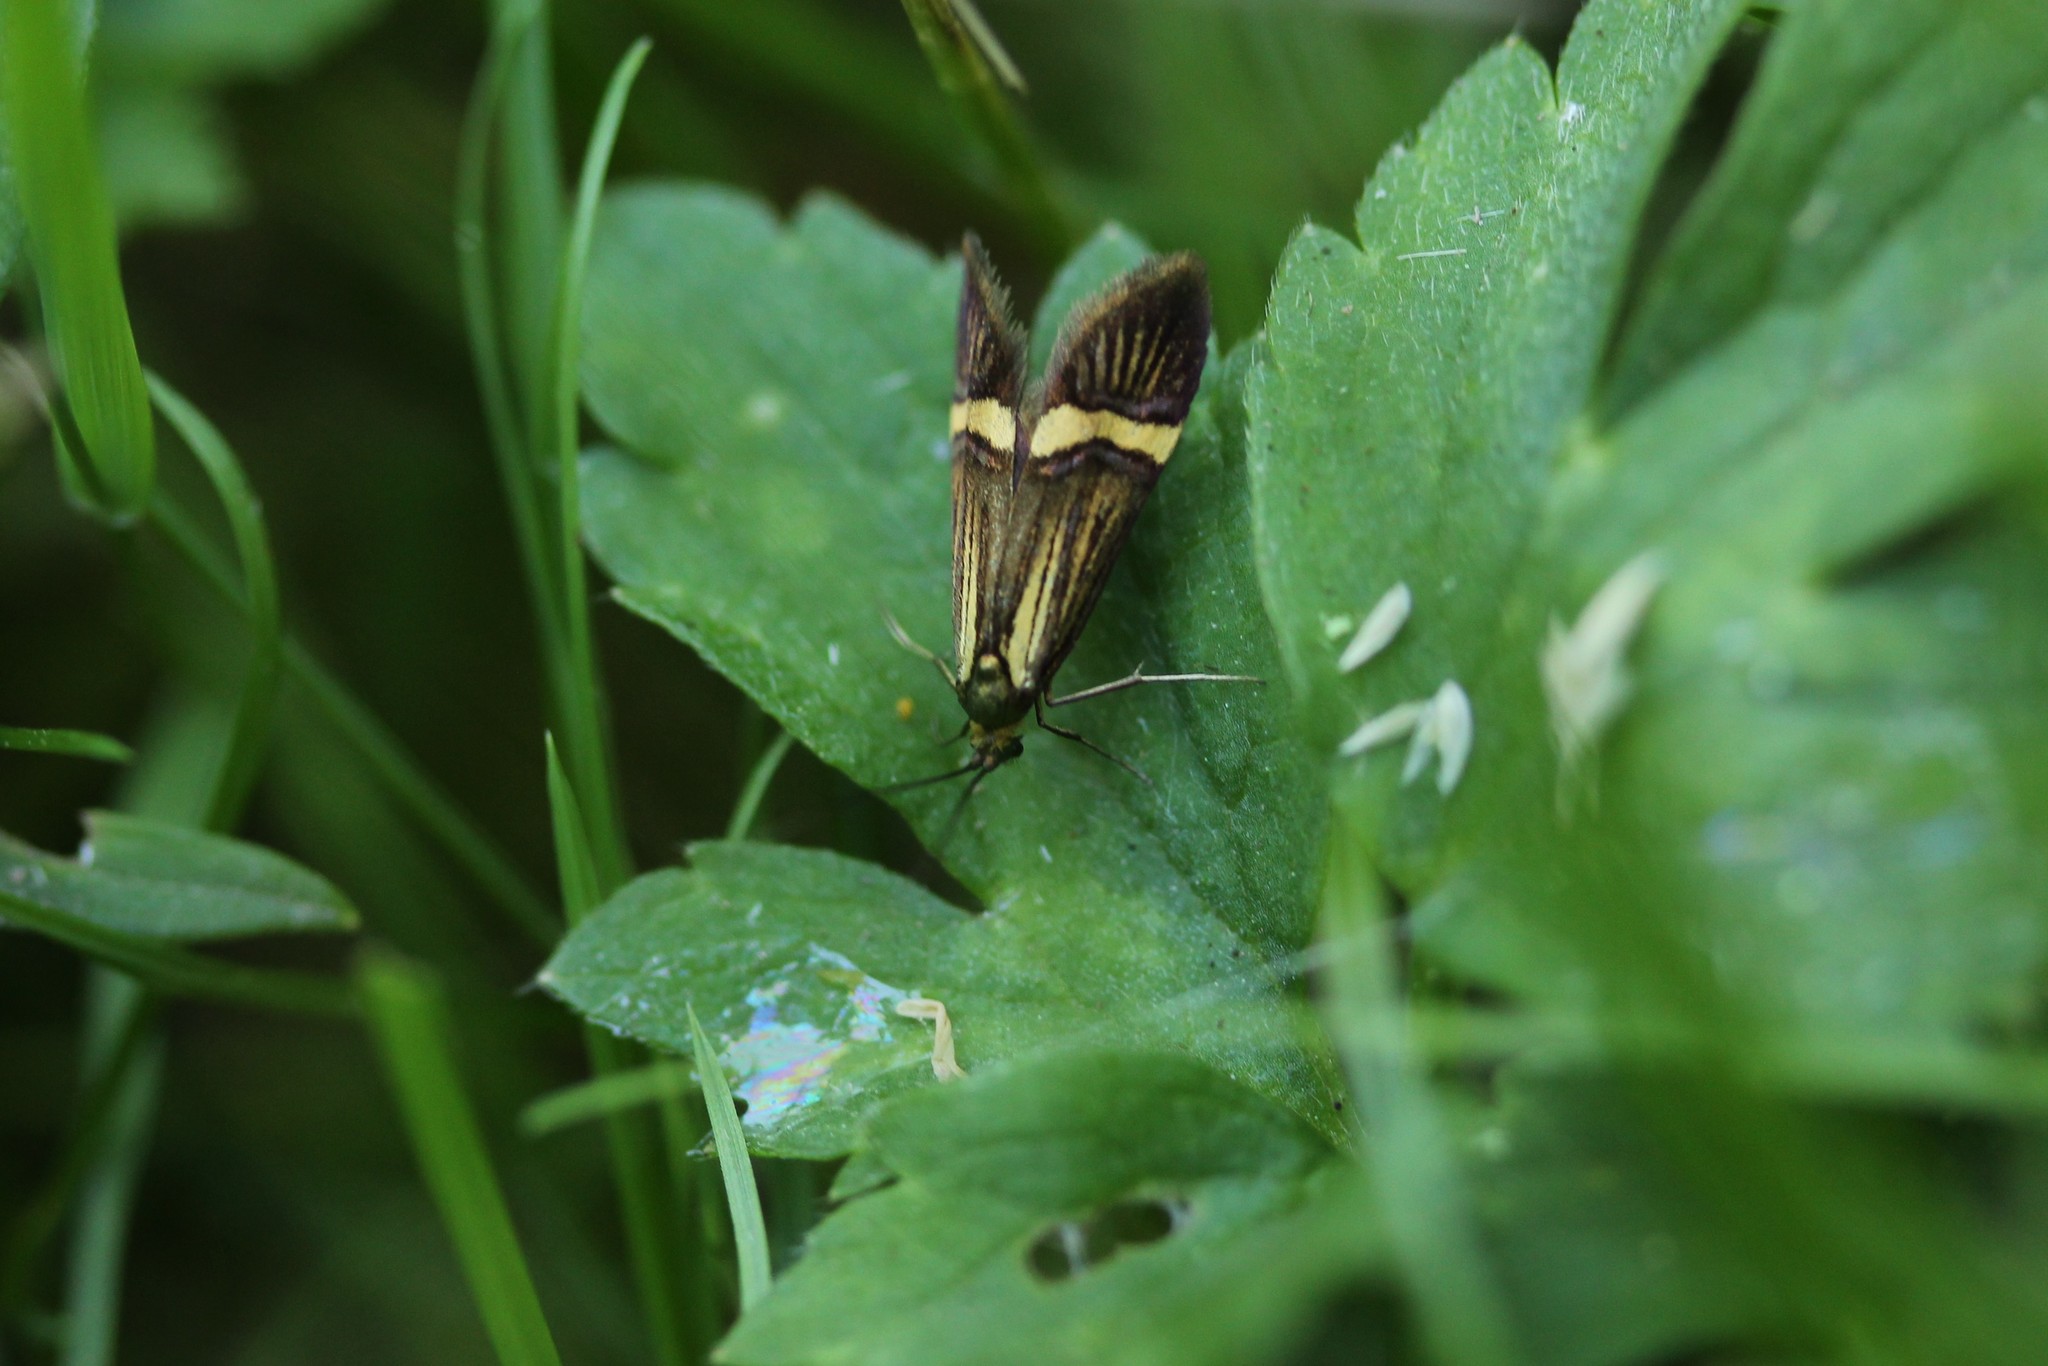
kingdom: Animalia
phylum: Arthropoda
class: Insecta
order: Lepidoptera
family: Adelidae
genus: Nemophora
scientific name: Nemophora degeerella
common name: Yellow-barred long-horn
